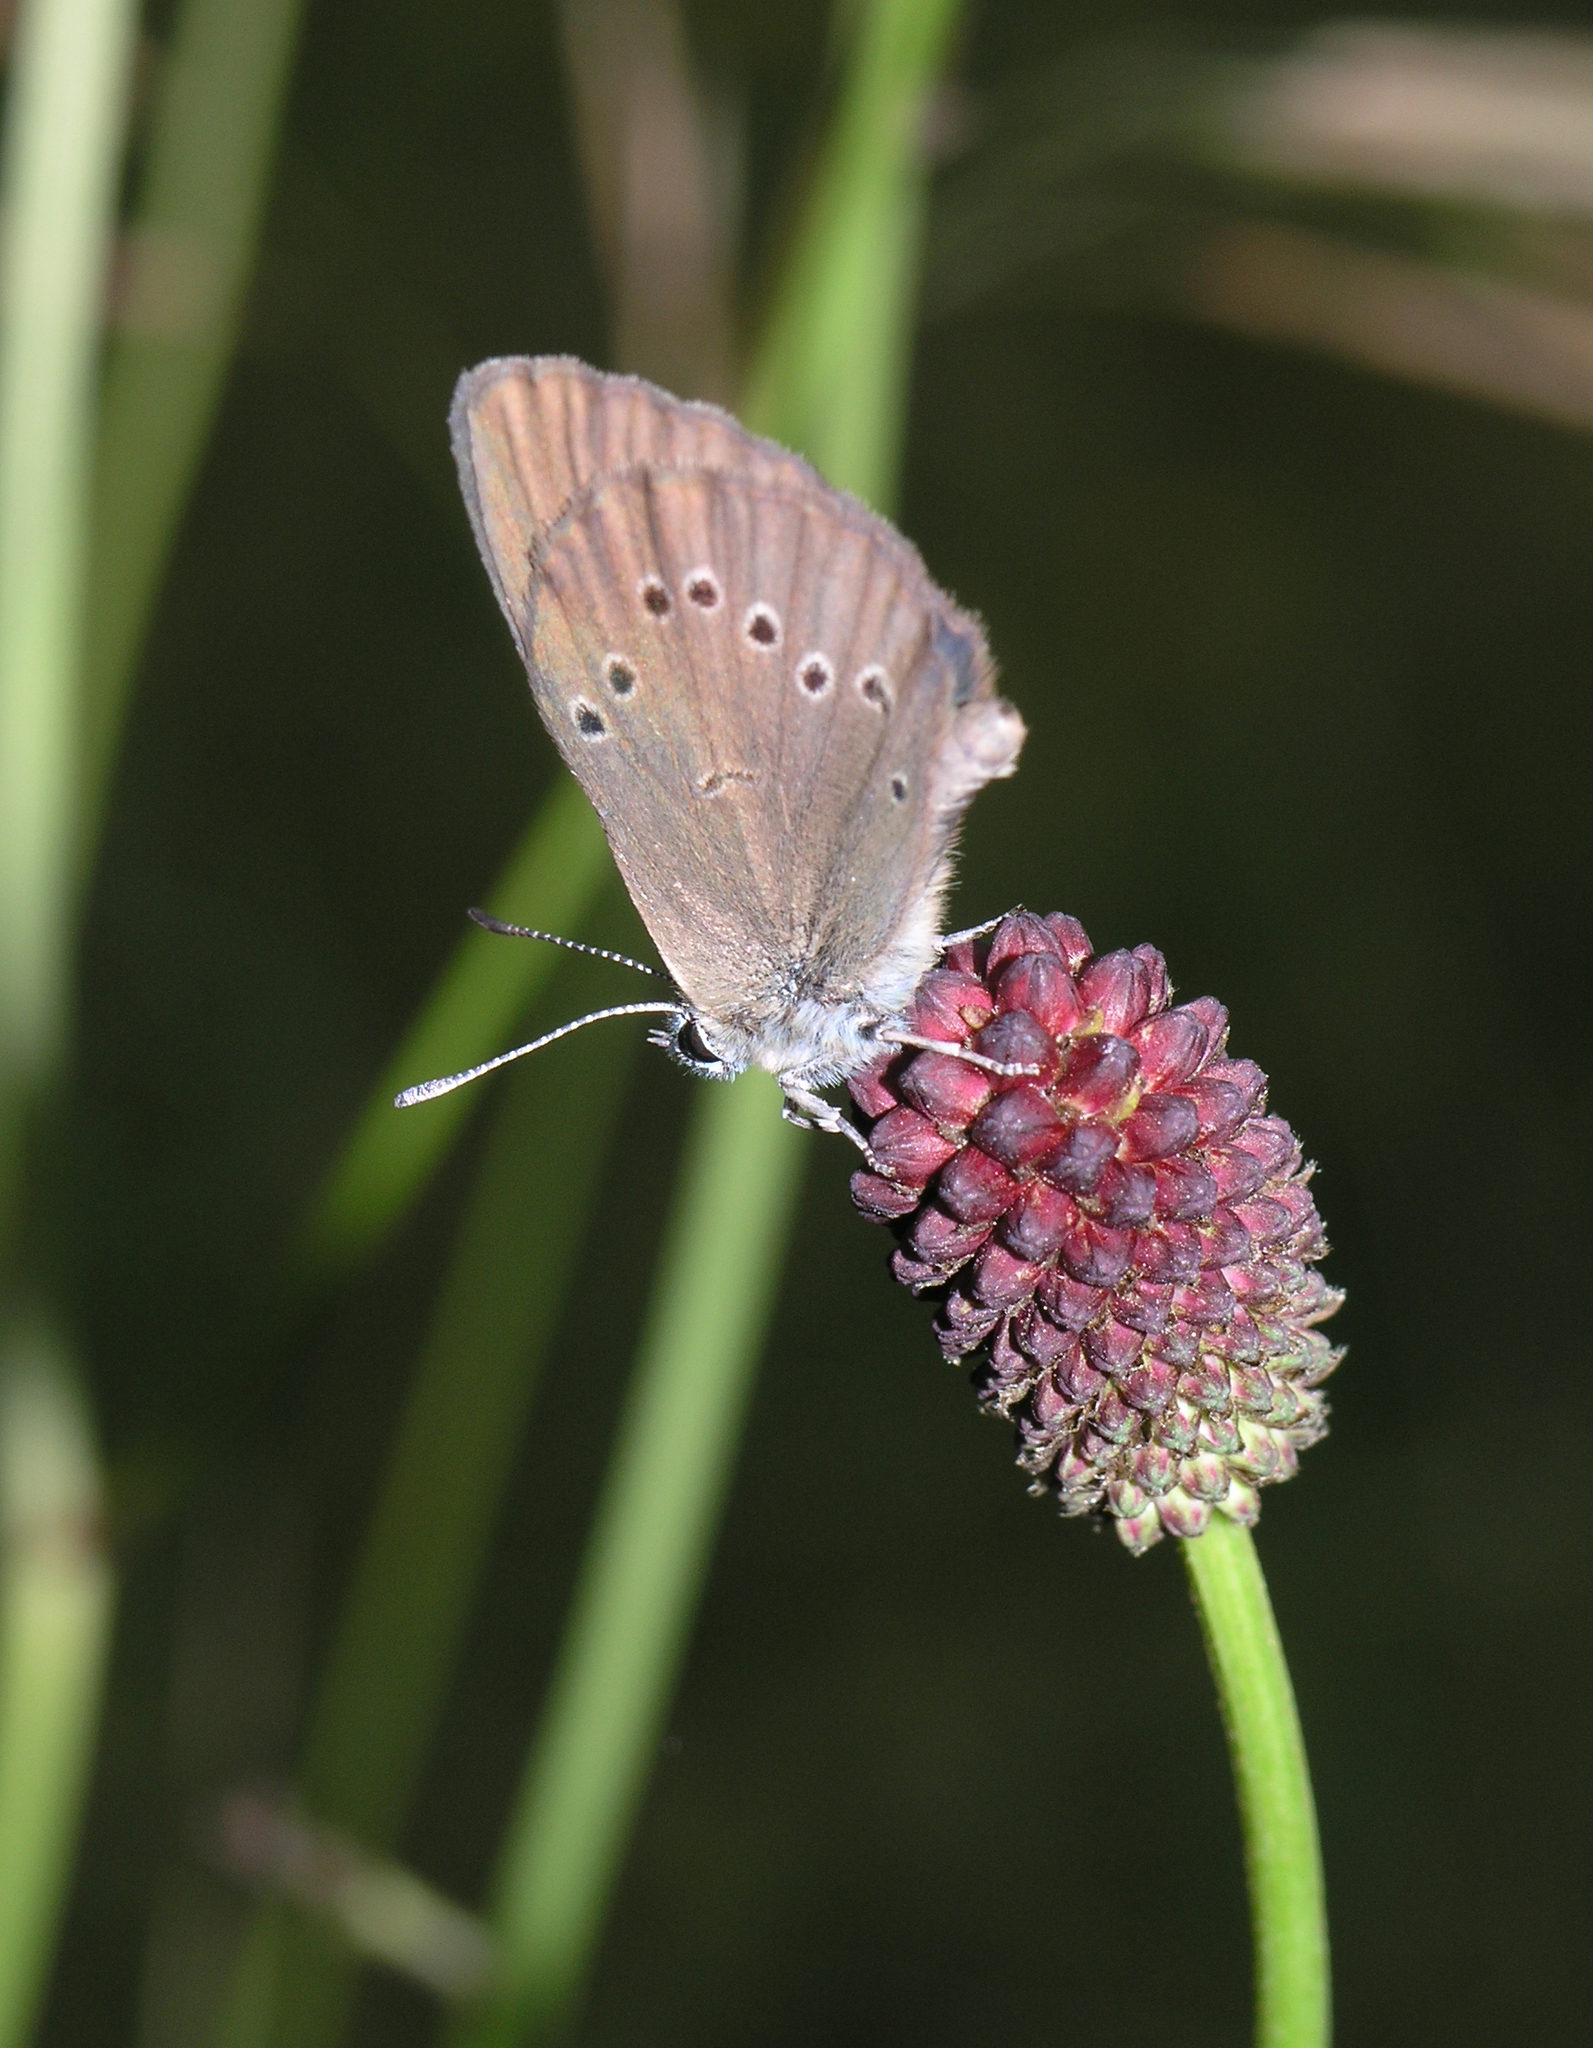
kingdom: Animalia
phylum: Arthropoda
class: Insecta
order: Lepidoptera
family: Lycaenidae
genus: Maculinea
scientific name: Maculinea nausithous
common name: Dusky large blue
